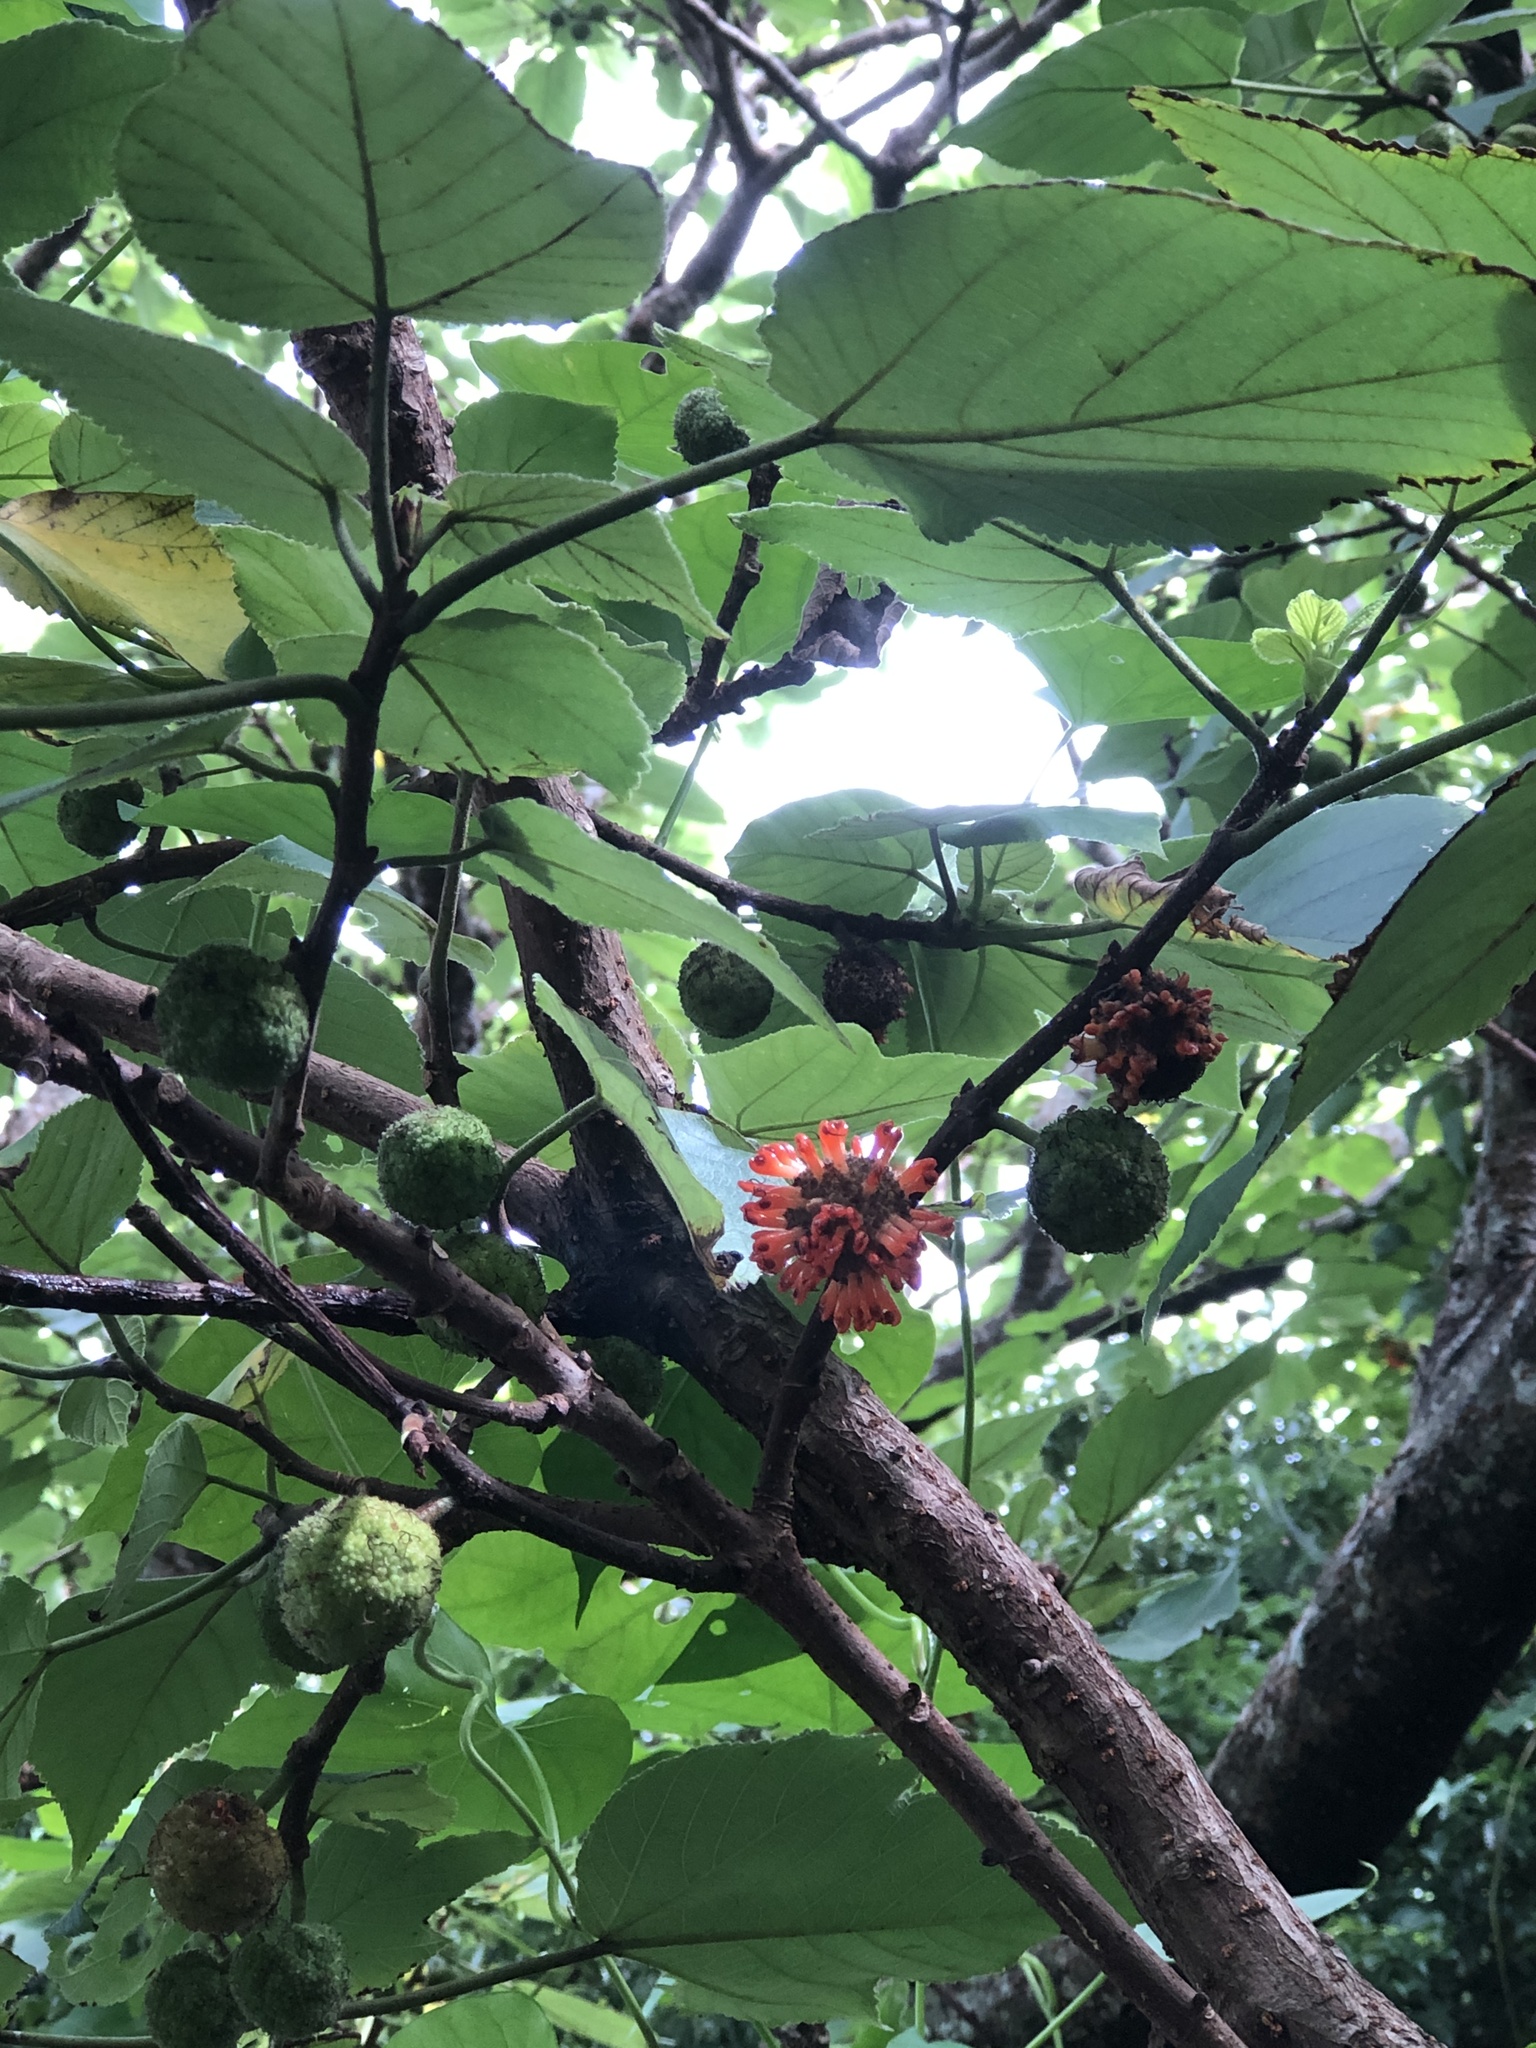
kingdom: Plantae
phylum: Tracheophyta
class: Magnoliopsida
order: Rosales
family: Moraceae
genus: Broussonetia
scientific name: Broussonetia papyrifera
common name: Paper mulberry
